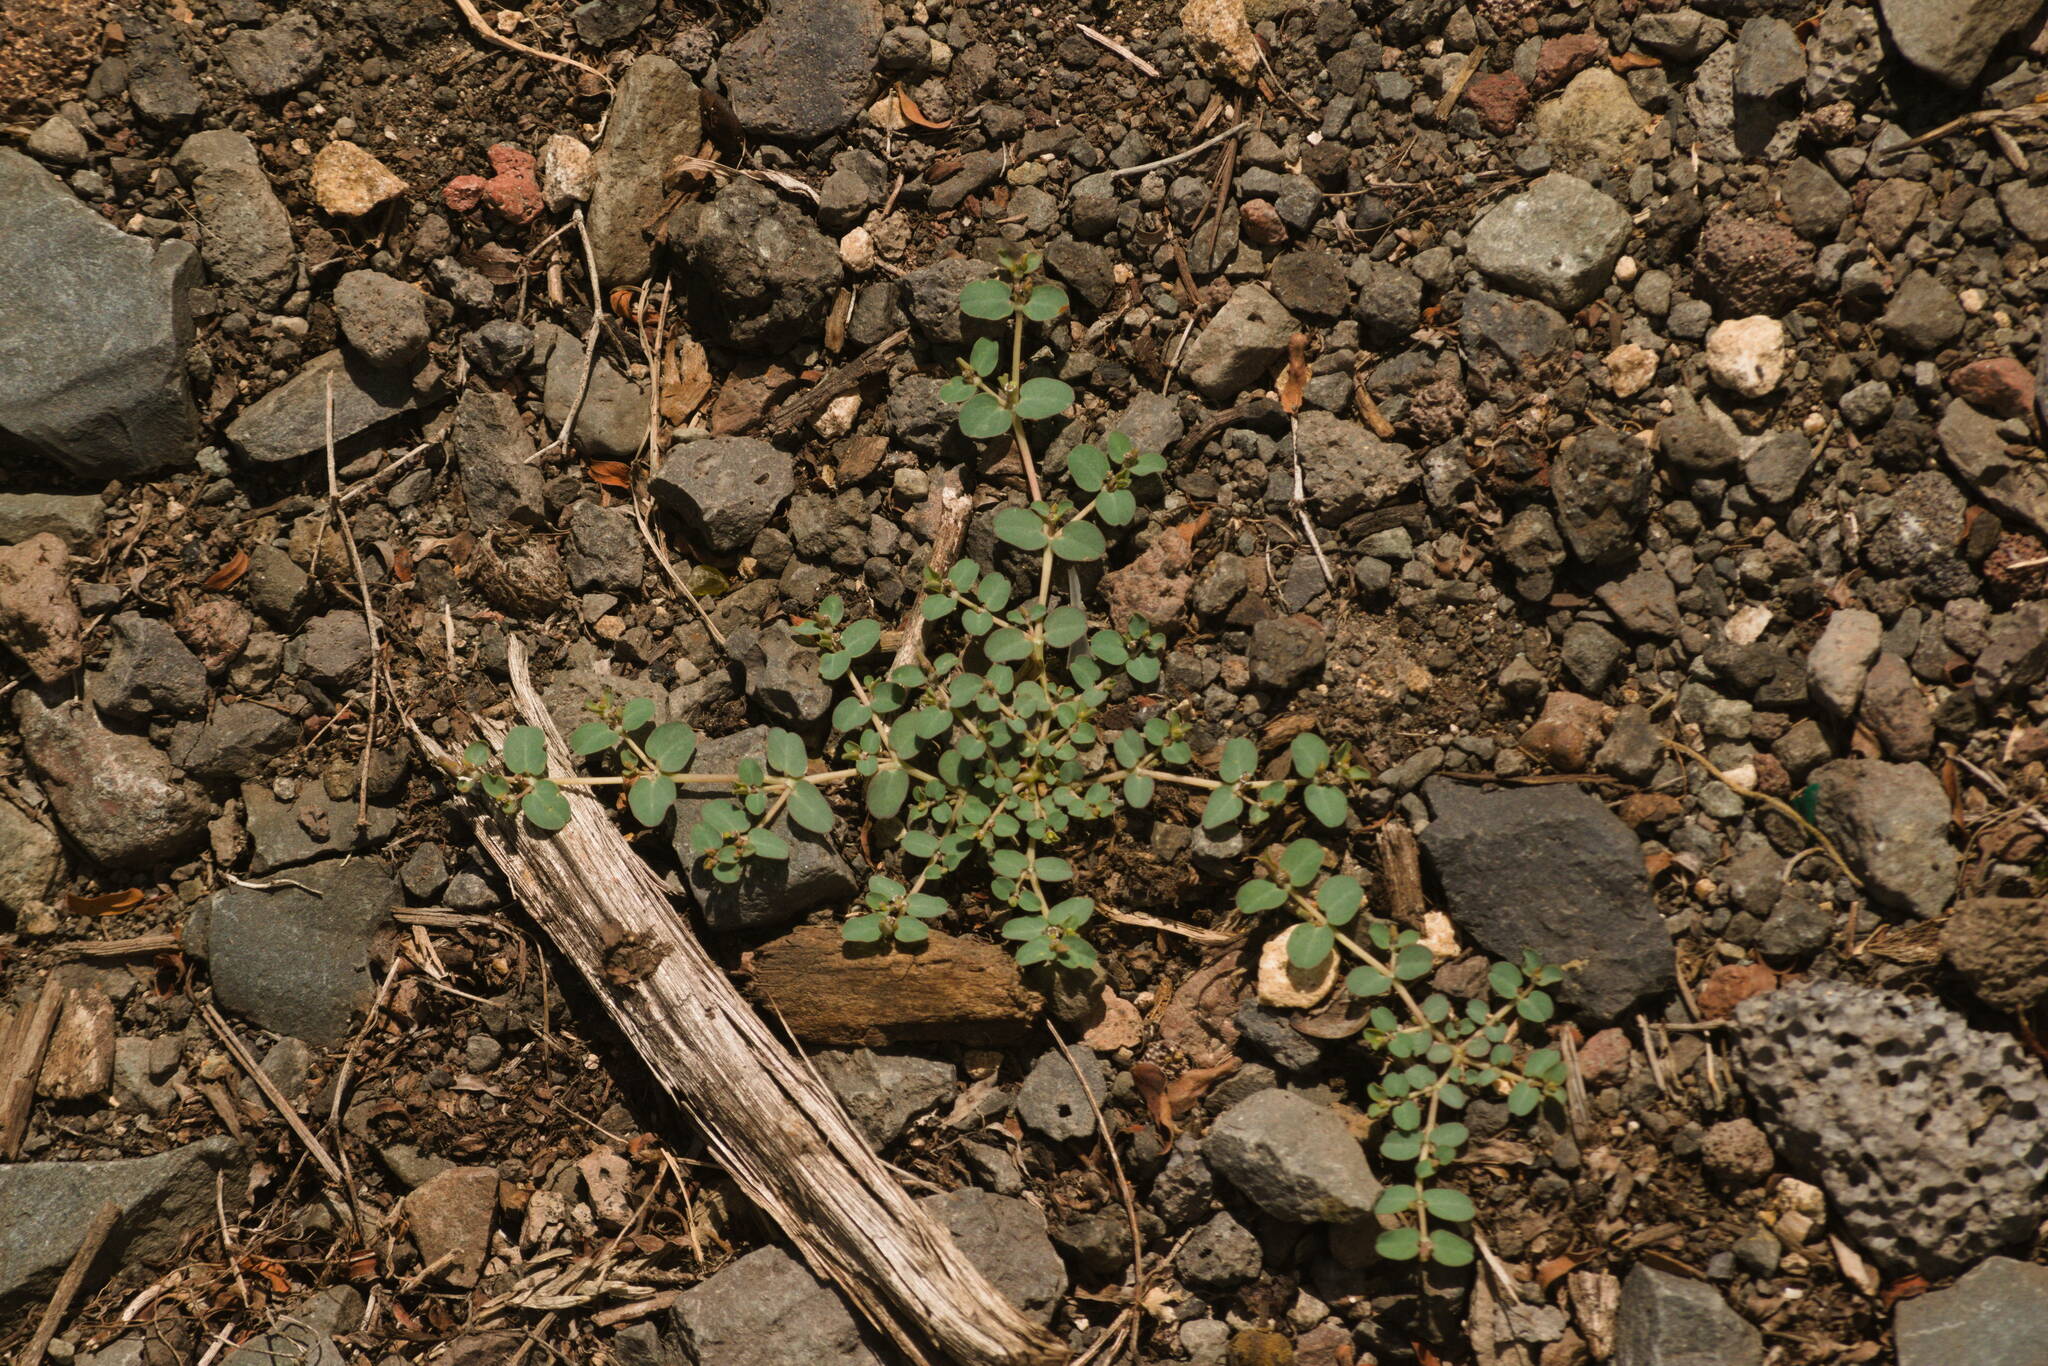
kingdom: Plantae
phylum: Tracheophyta
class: Magnoliopsida
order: Malpighiales
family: Euphorbiaceae
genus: Euphorbia
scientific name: Euphorbia serpens
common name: Matted sandmat
